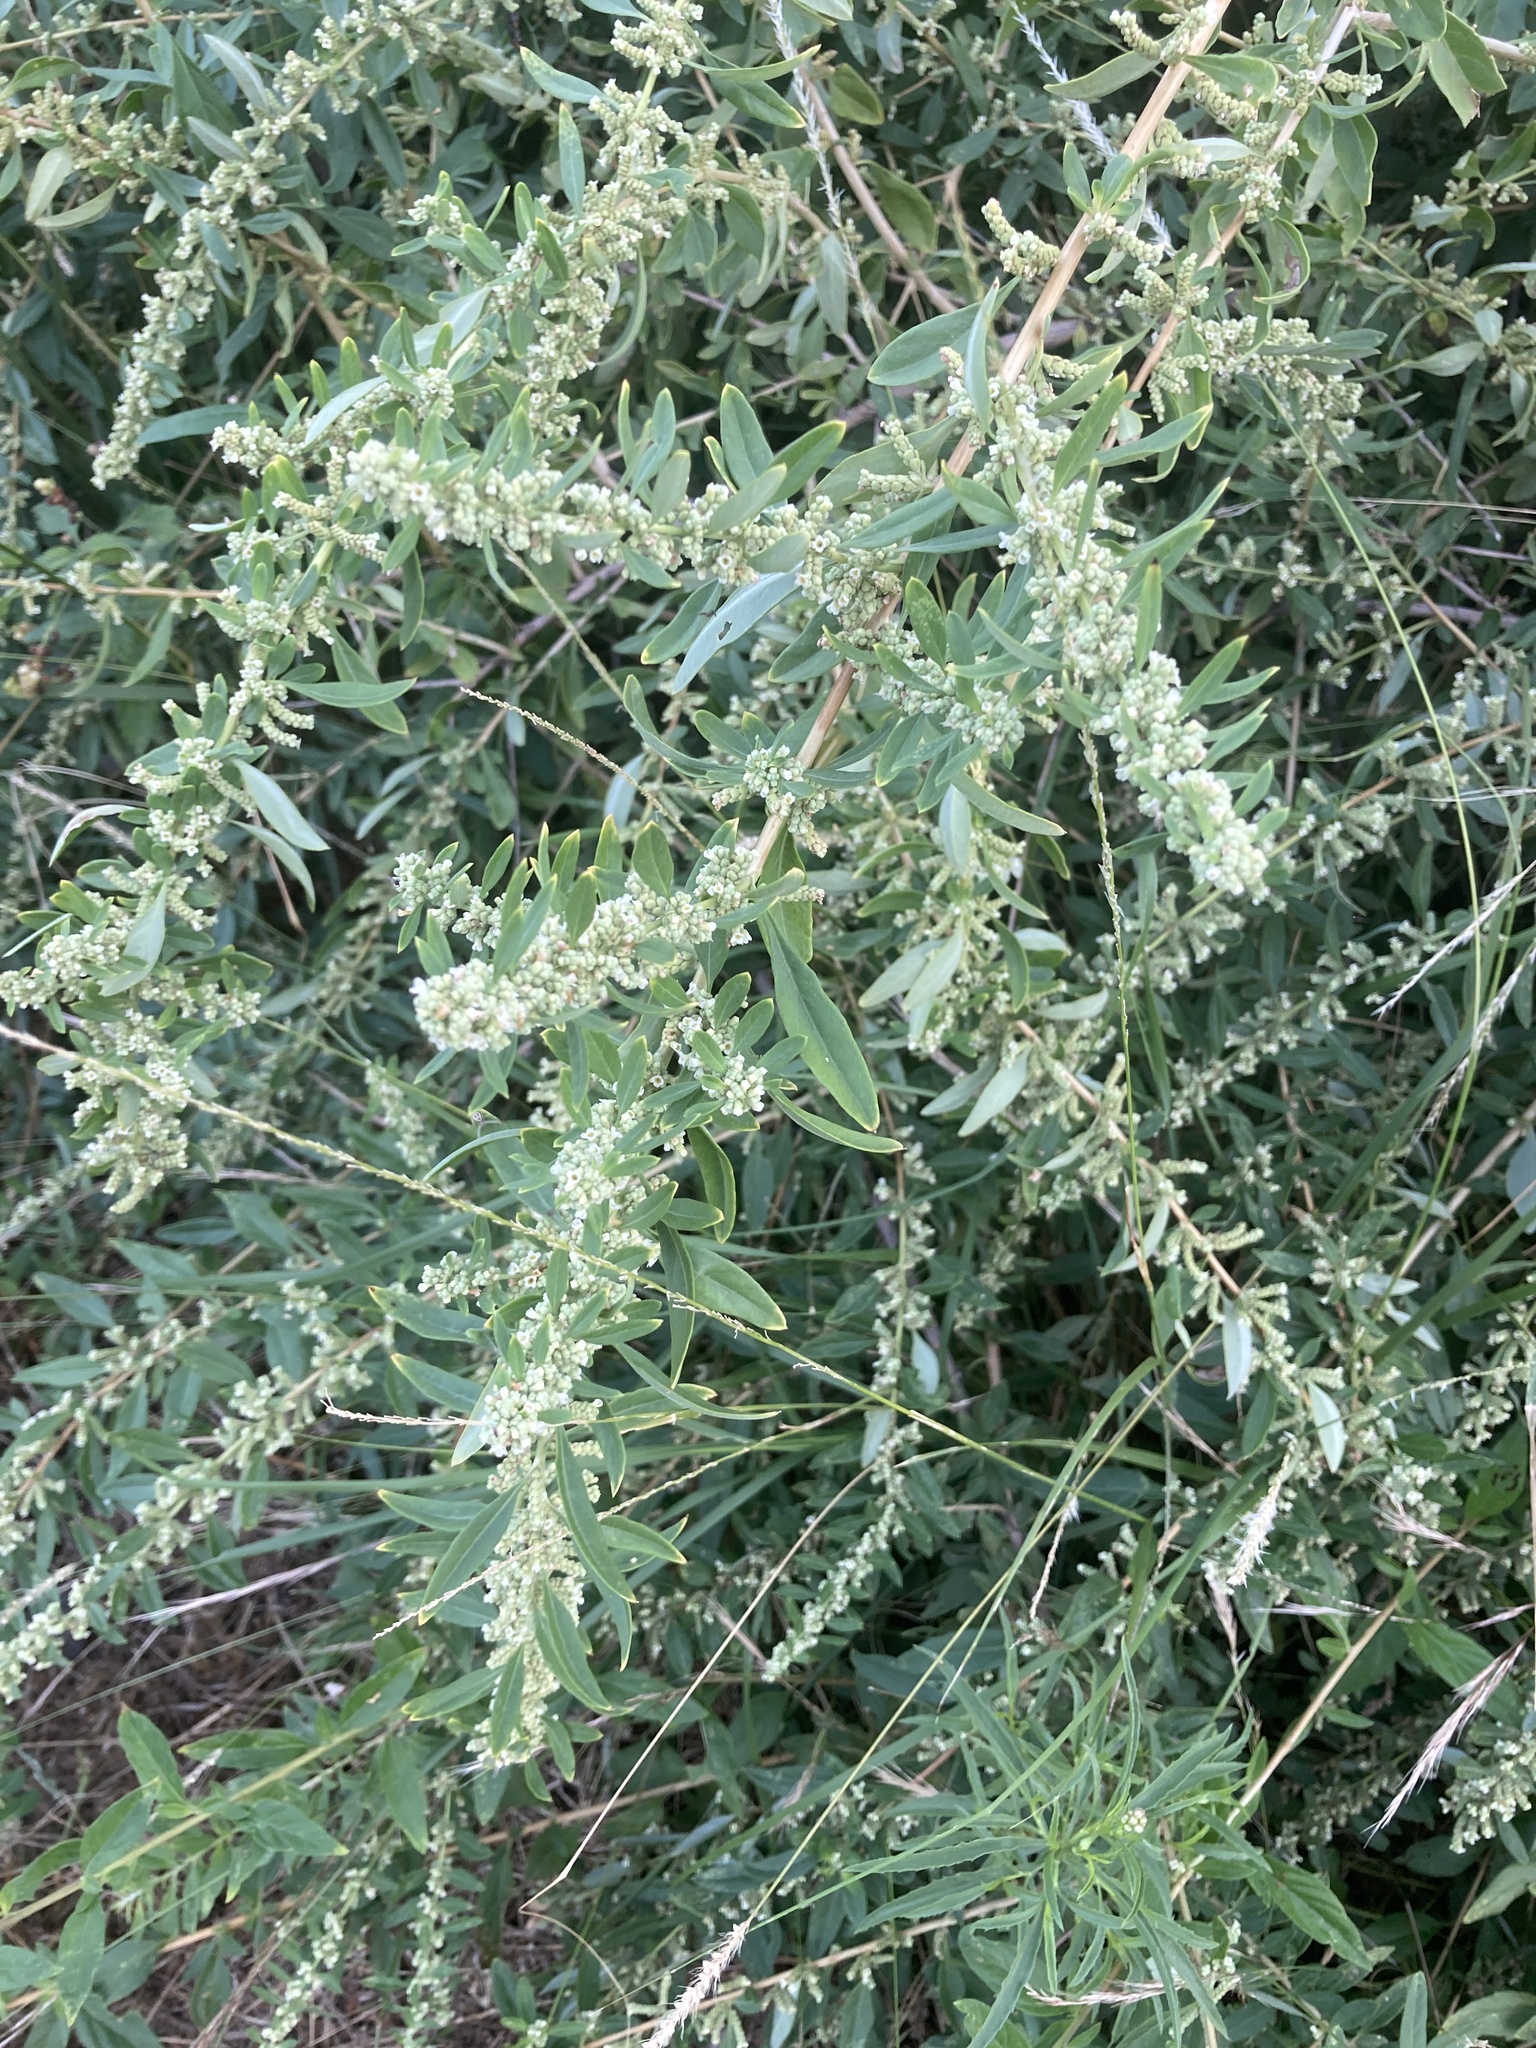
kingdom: Plantae
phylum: Tracheophyta
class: Magnoliopsida
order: Lamiales
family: Verbenaceae
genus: Aloysia
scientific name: Aloysia polystachya
